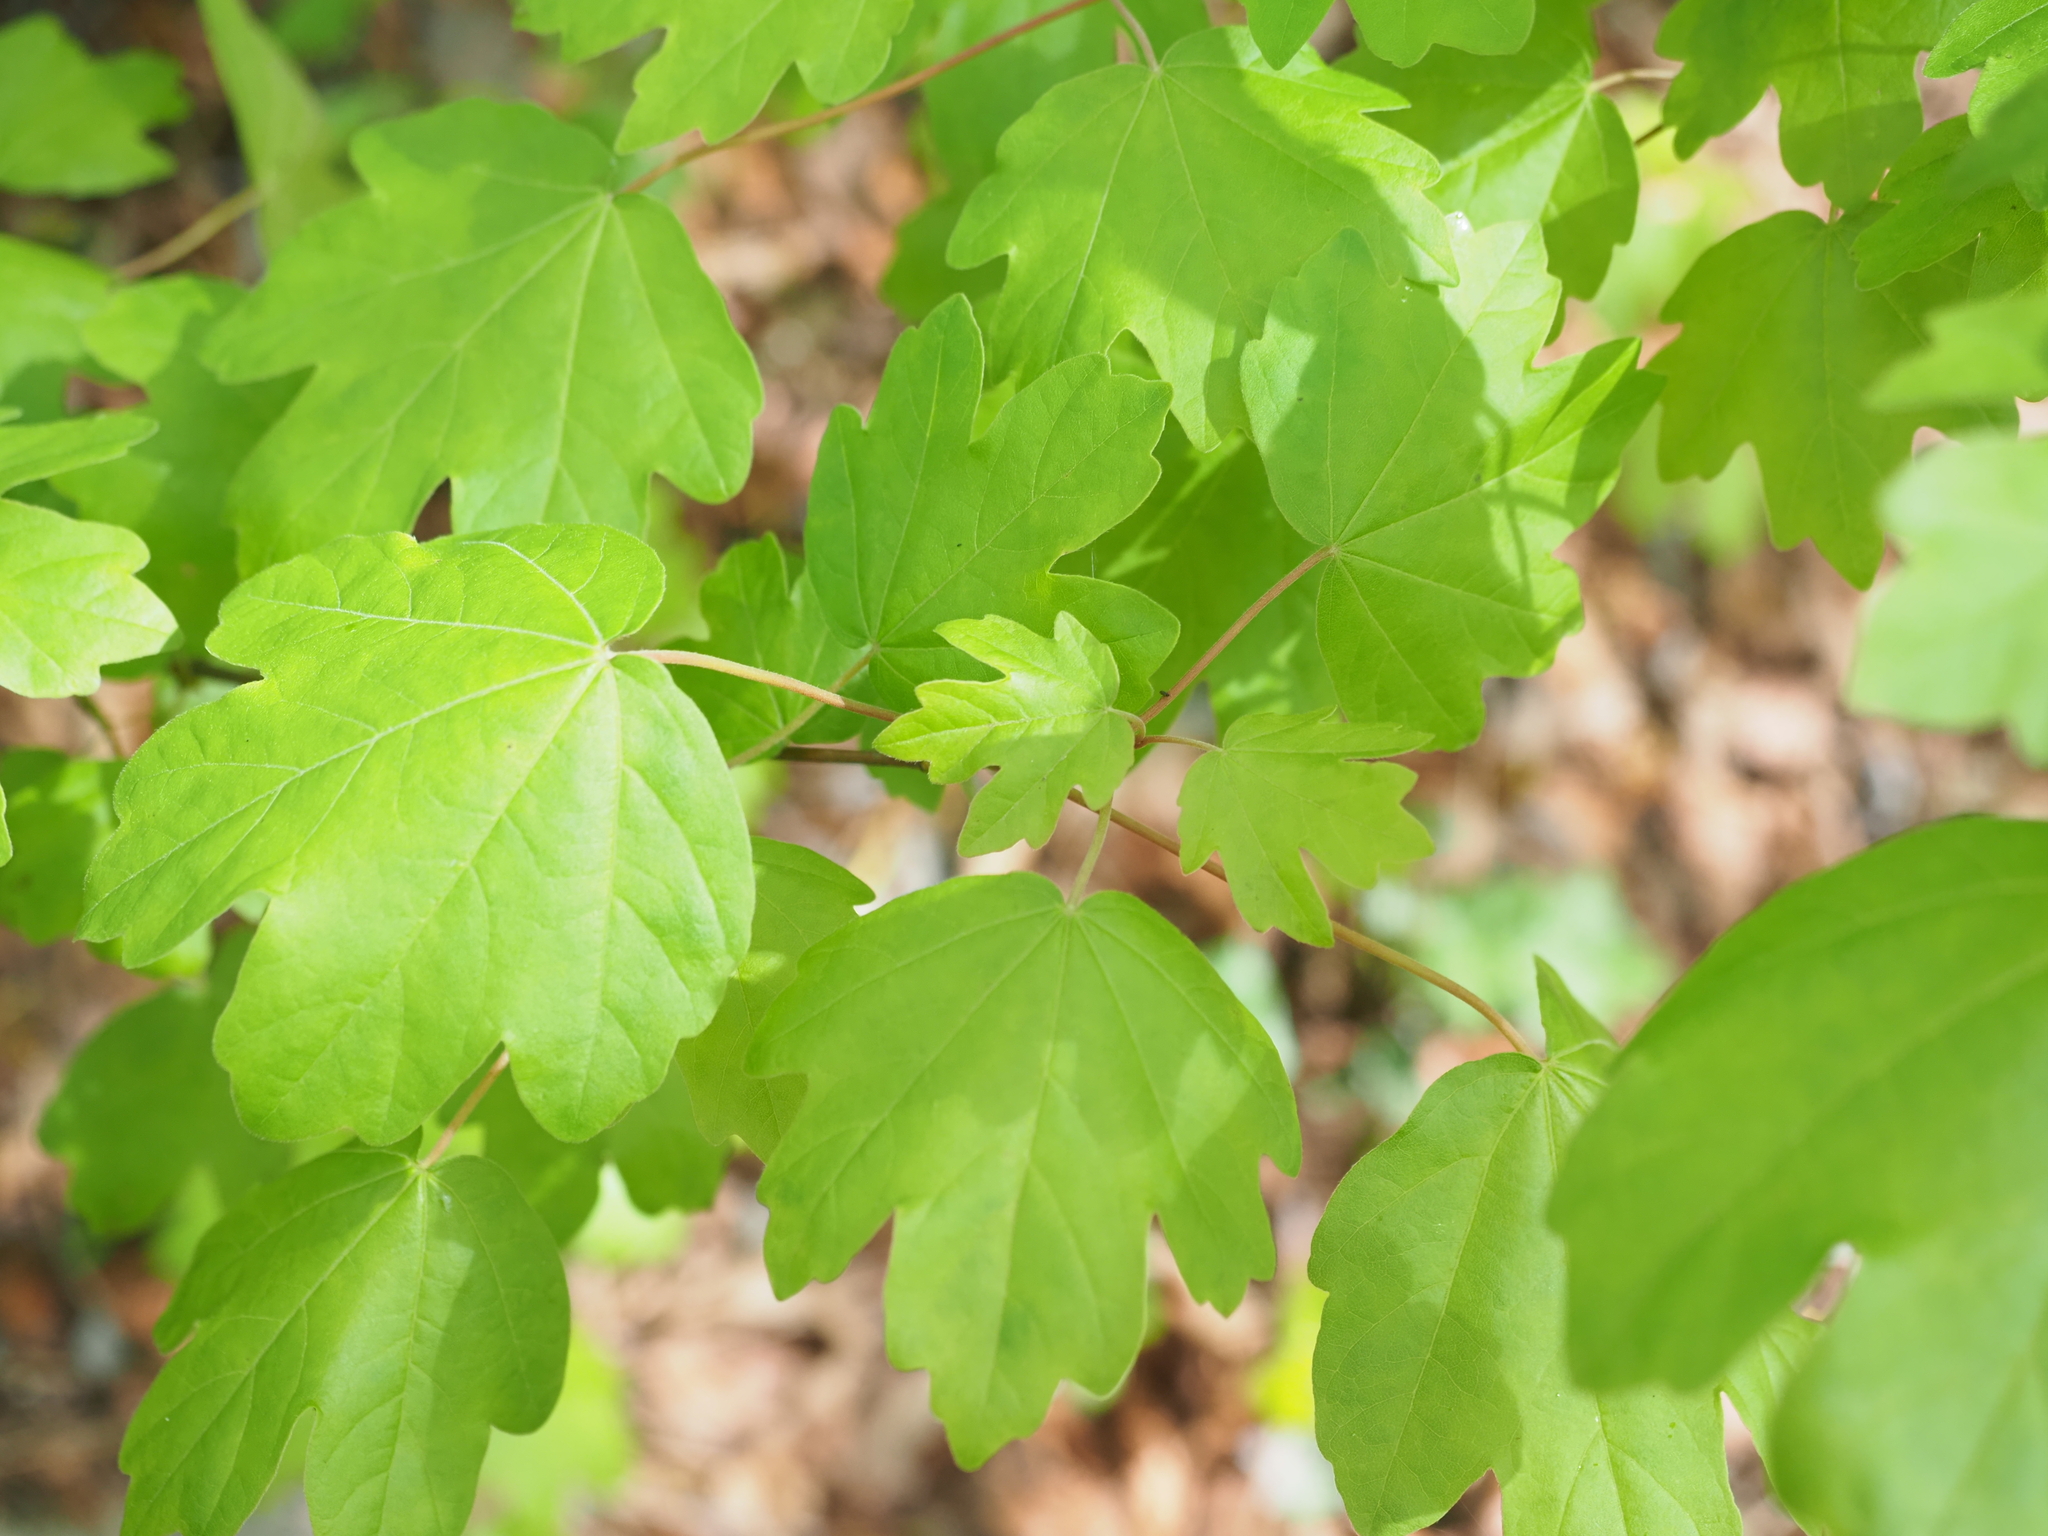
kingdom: Plantae
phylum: Tracheophyta
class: Magnoliopsida
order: Sapindales
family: Sapindaceae
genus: Acer
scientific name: Acer campestre
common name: Field maple
